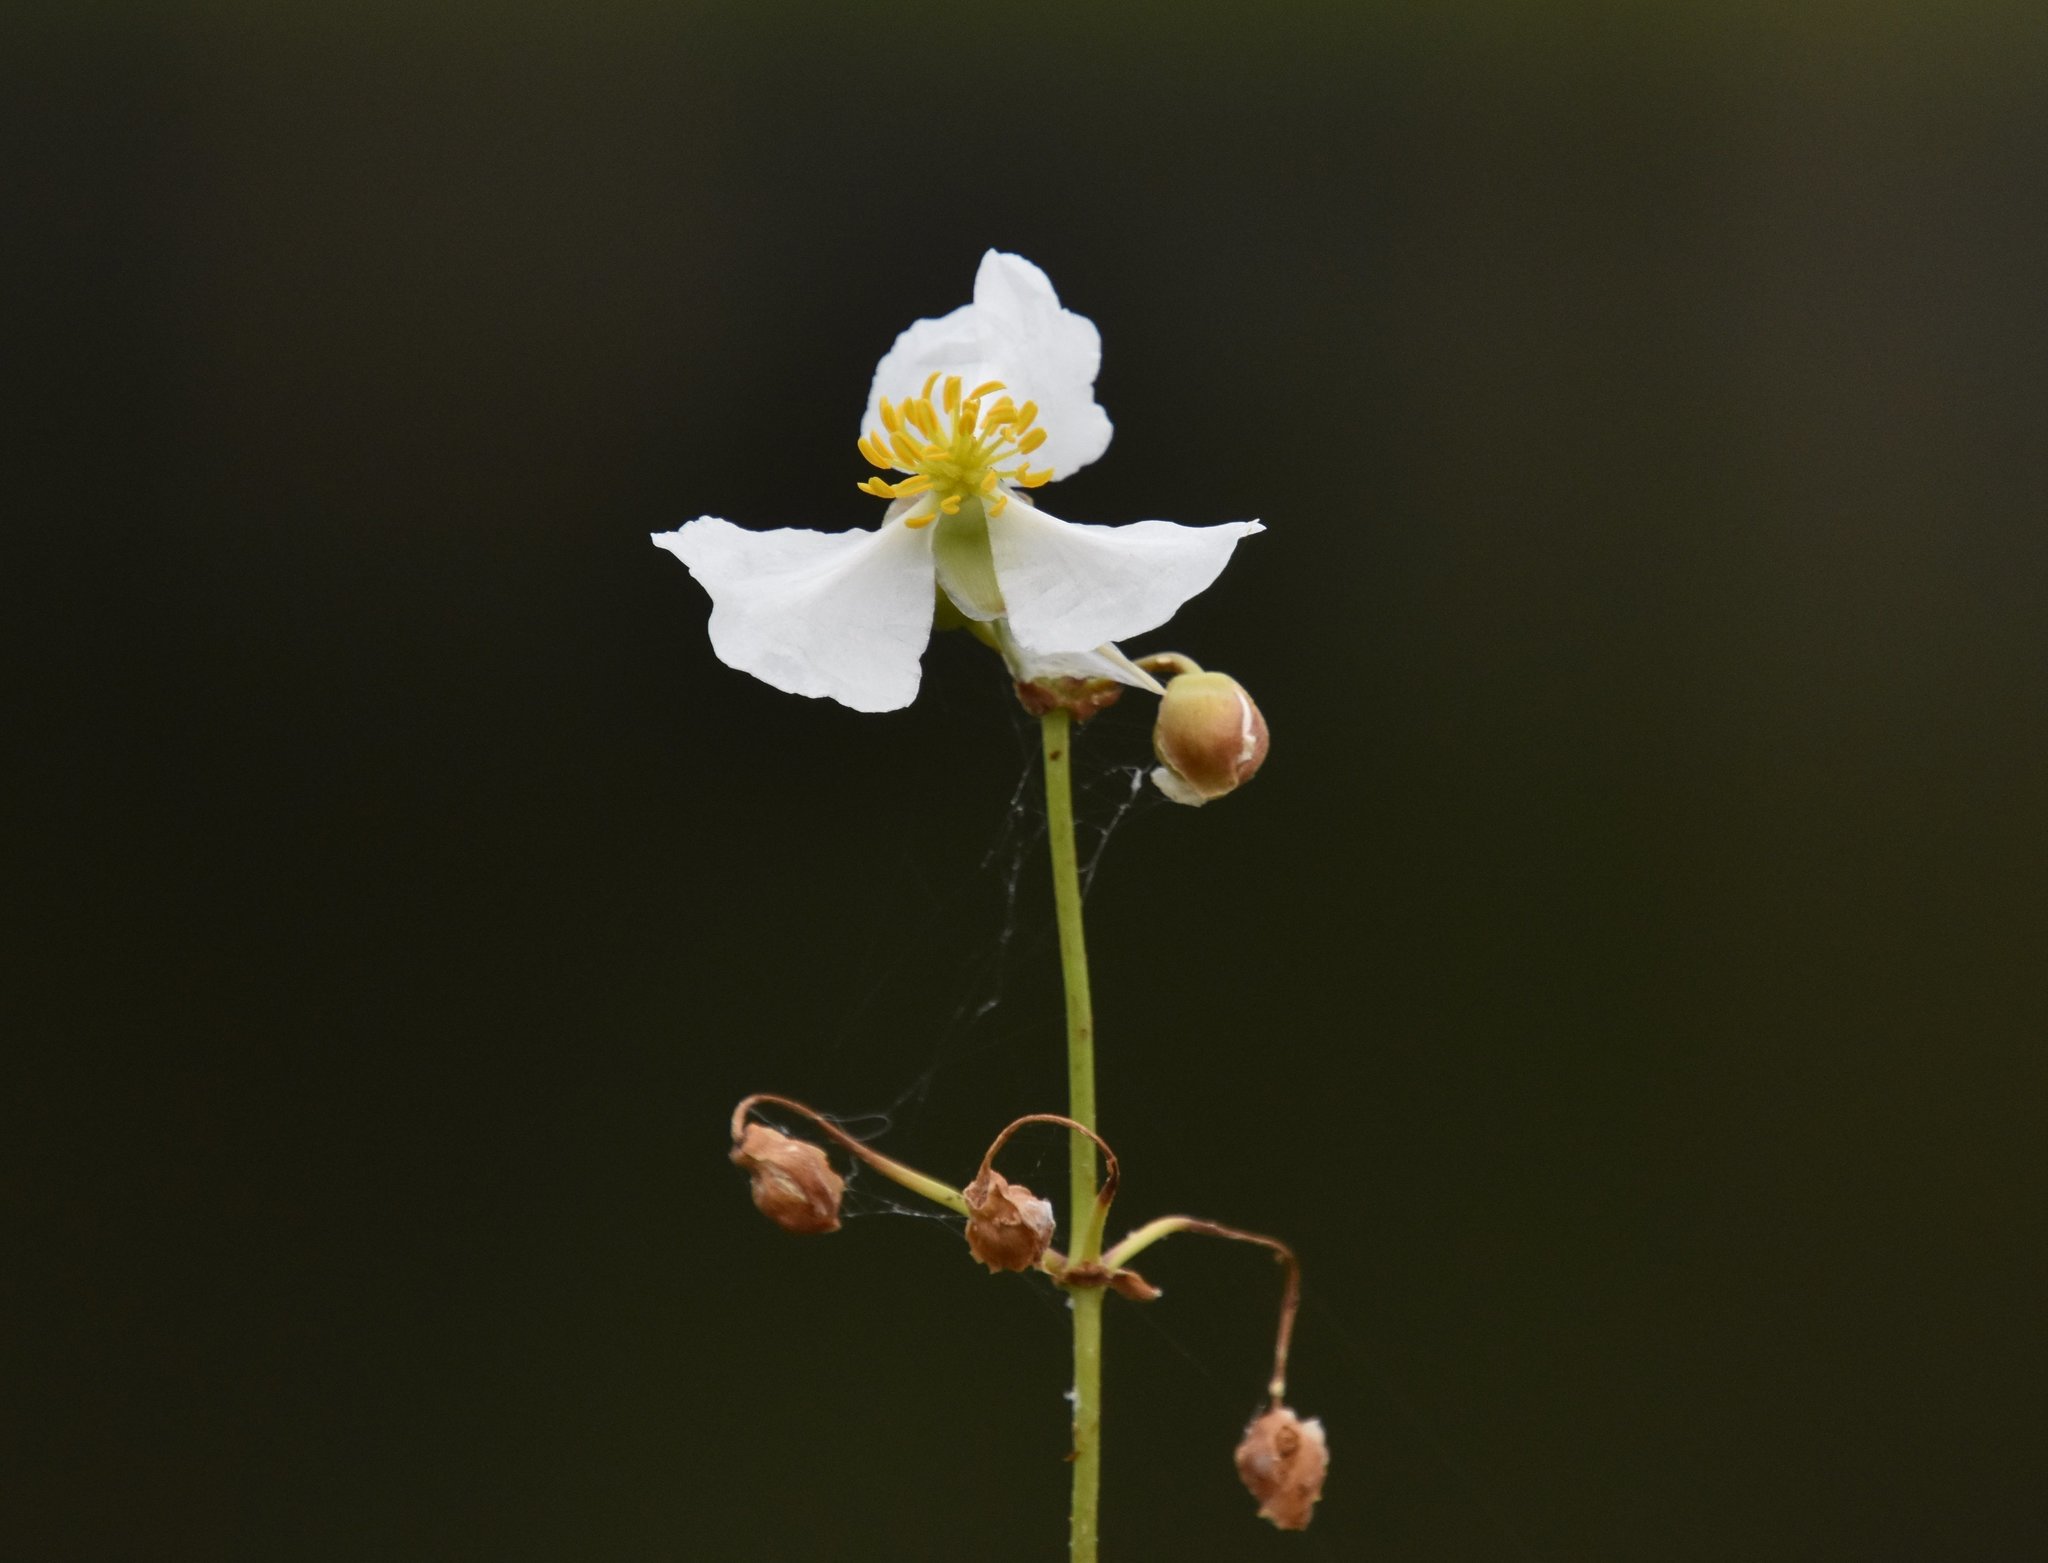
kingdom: Plantae
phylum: Tracheophyta
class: Liliopsida
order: Alismatales
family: Alismataceae
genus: Sagittaria
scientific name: Sagittaria lancifolia
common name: Lance-leaf arrowhead
